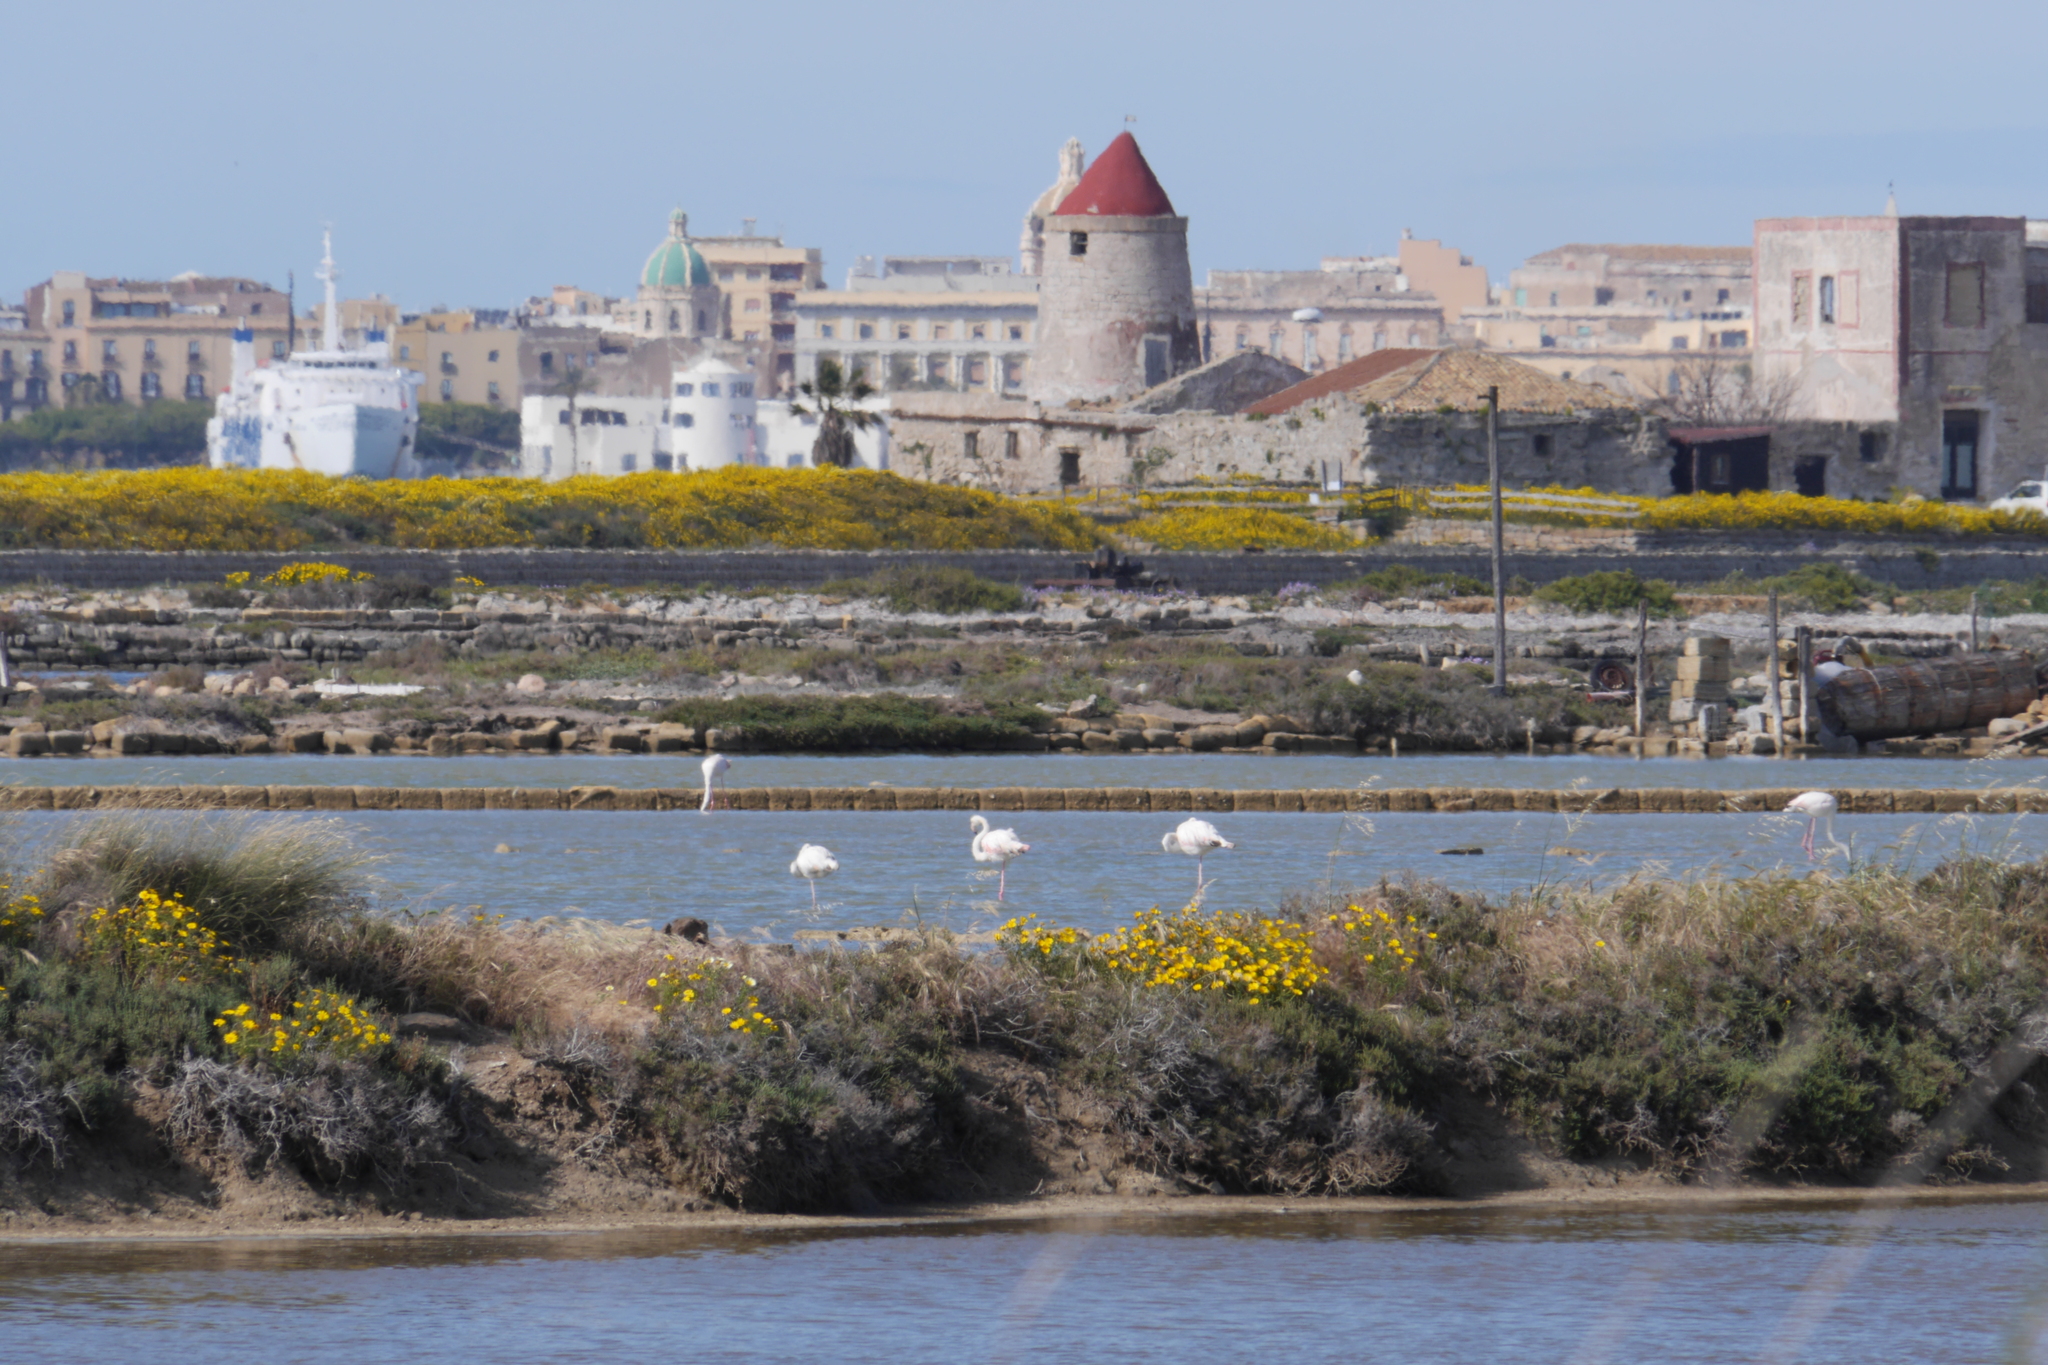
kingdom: Animalia
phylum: Chordata
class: Aves
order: Phoenicopteriformes
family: Phoenicopteridae
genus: Phoenicopterus
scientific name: Phoenicopterus roseus
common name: Greater flamingo
